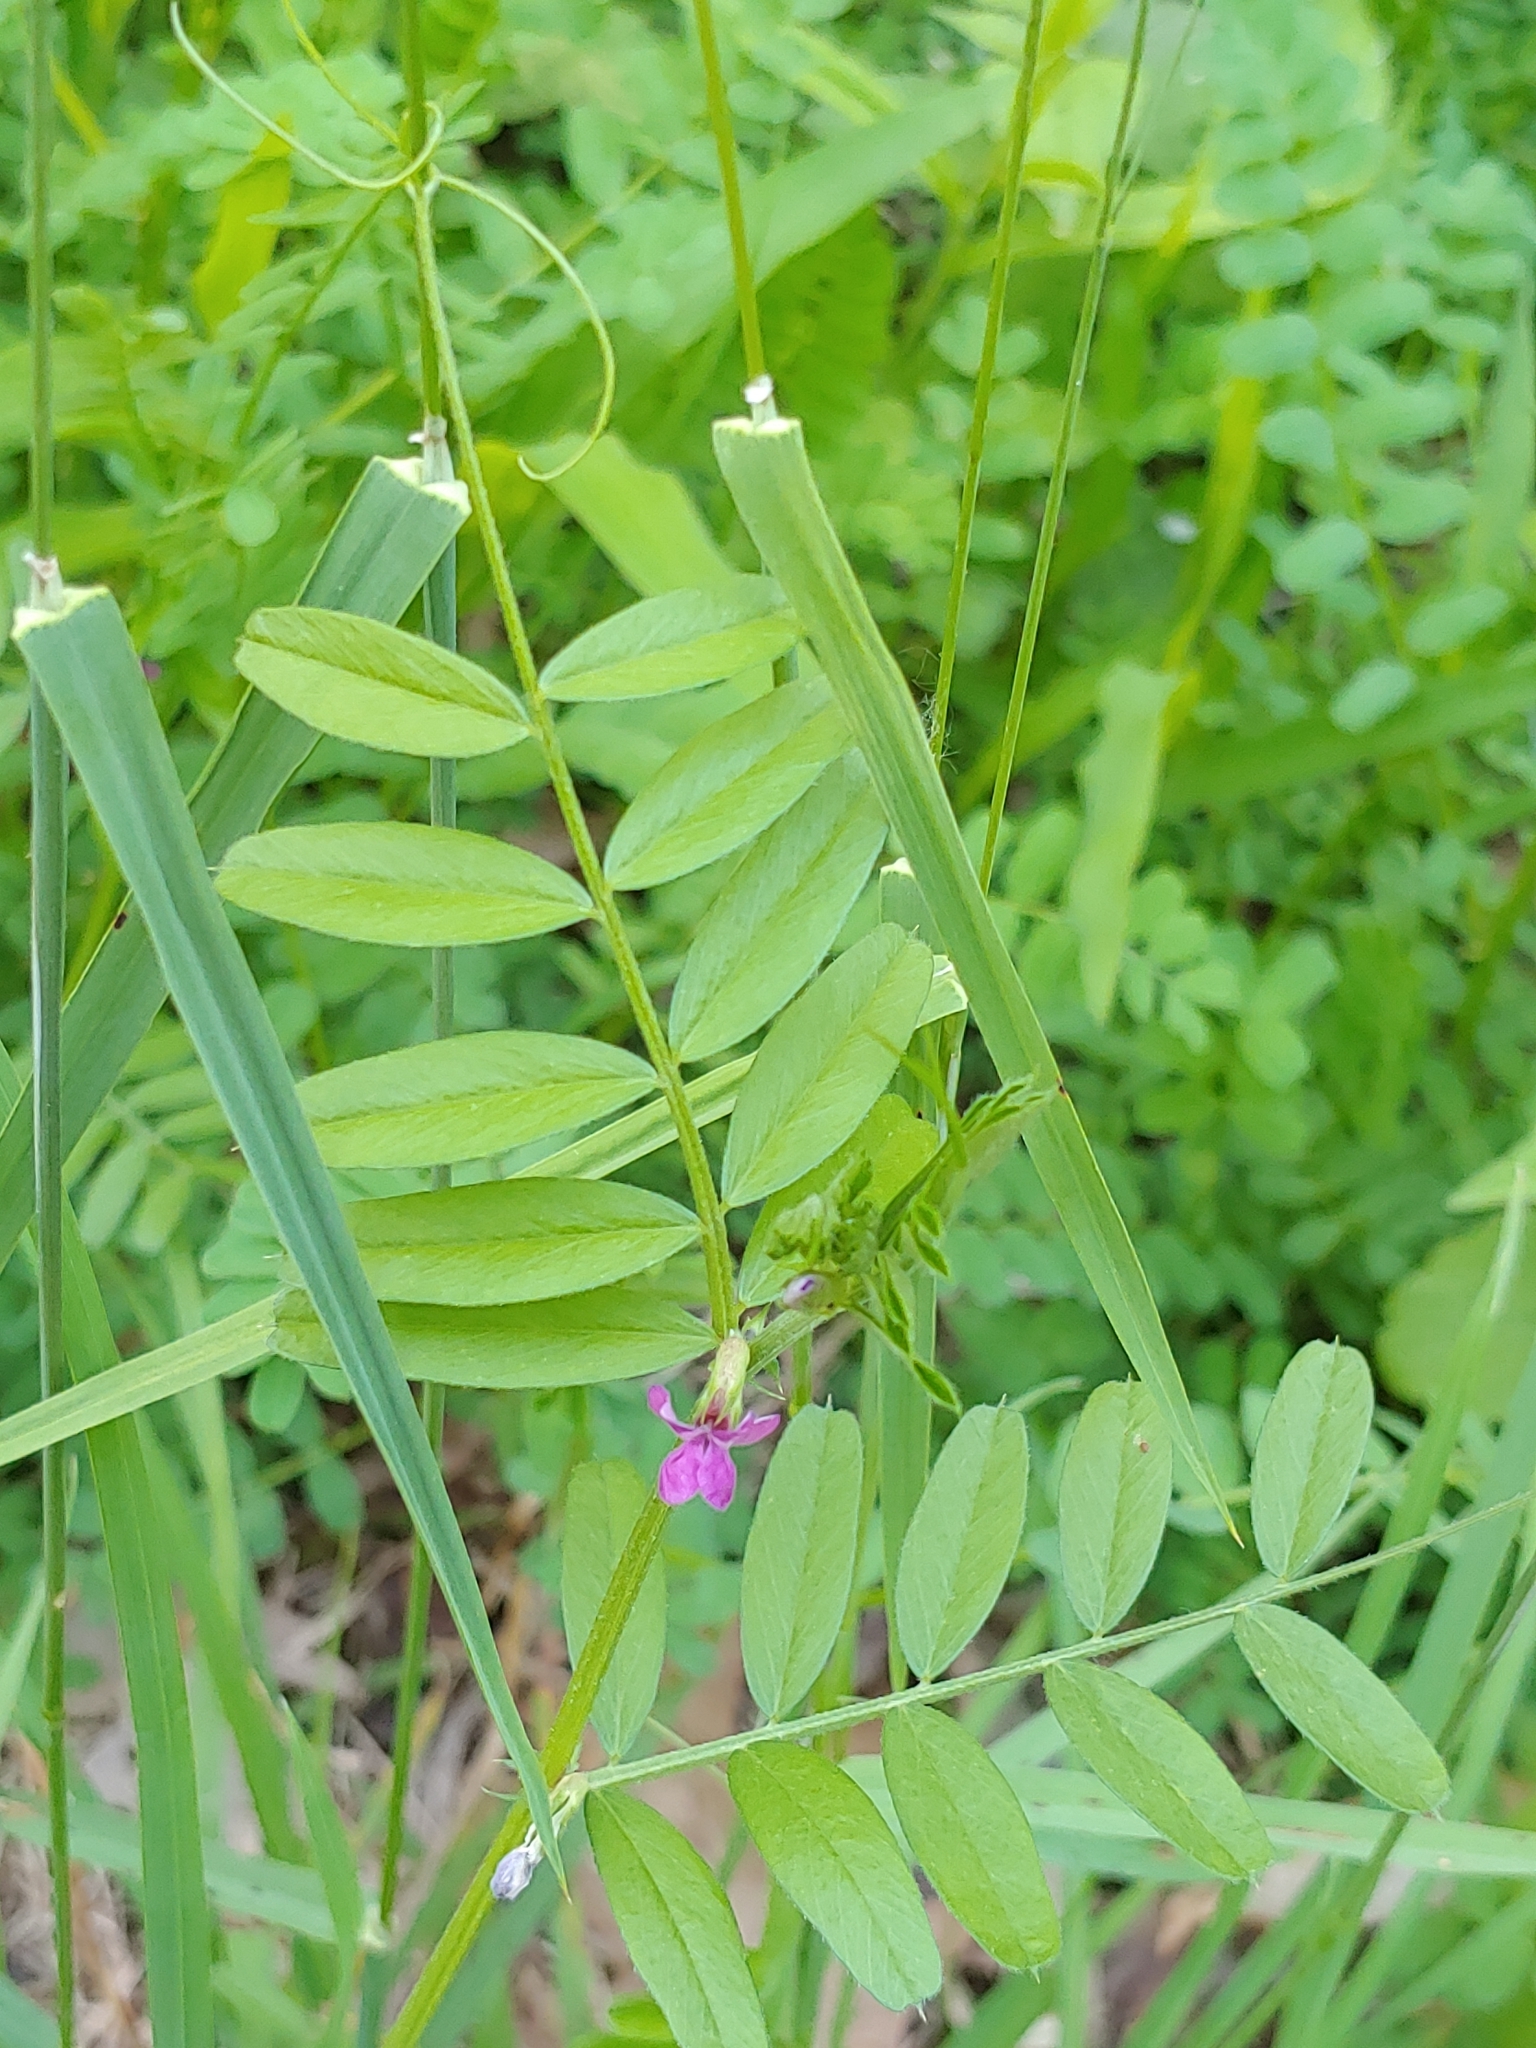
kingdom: Plantae
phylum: Tracheophyta
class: Magnoliopsida
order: Fabales
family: Fabaceae
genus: Vicia
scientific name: Vicia sativa
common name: Garden vetch
